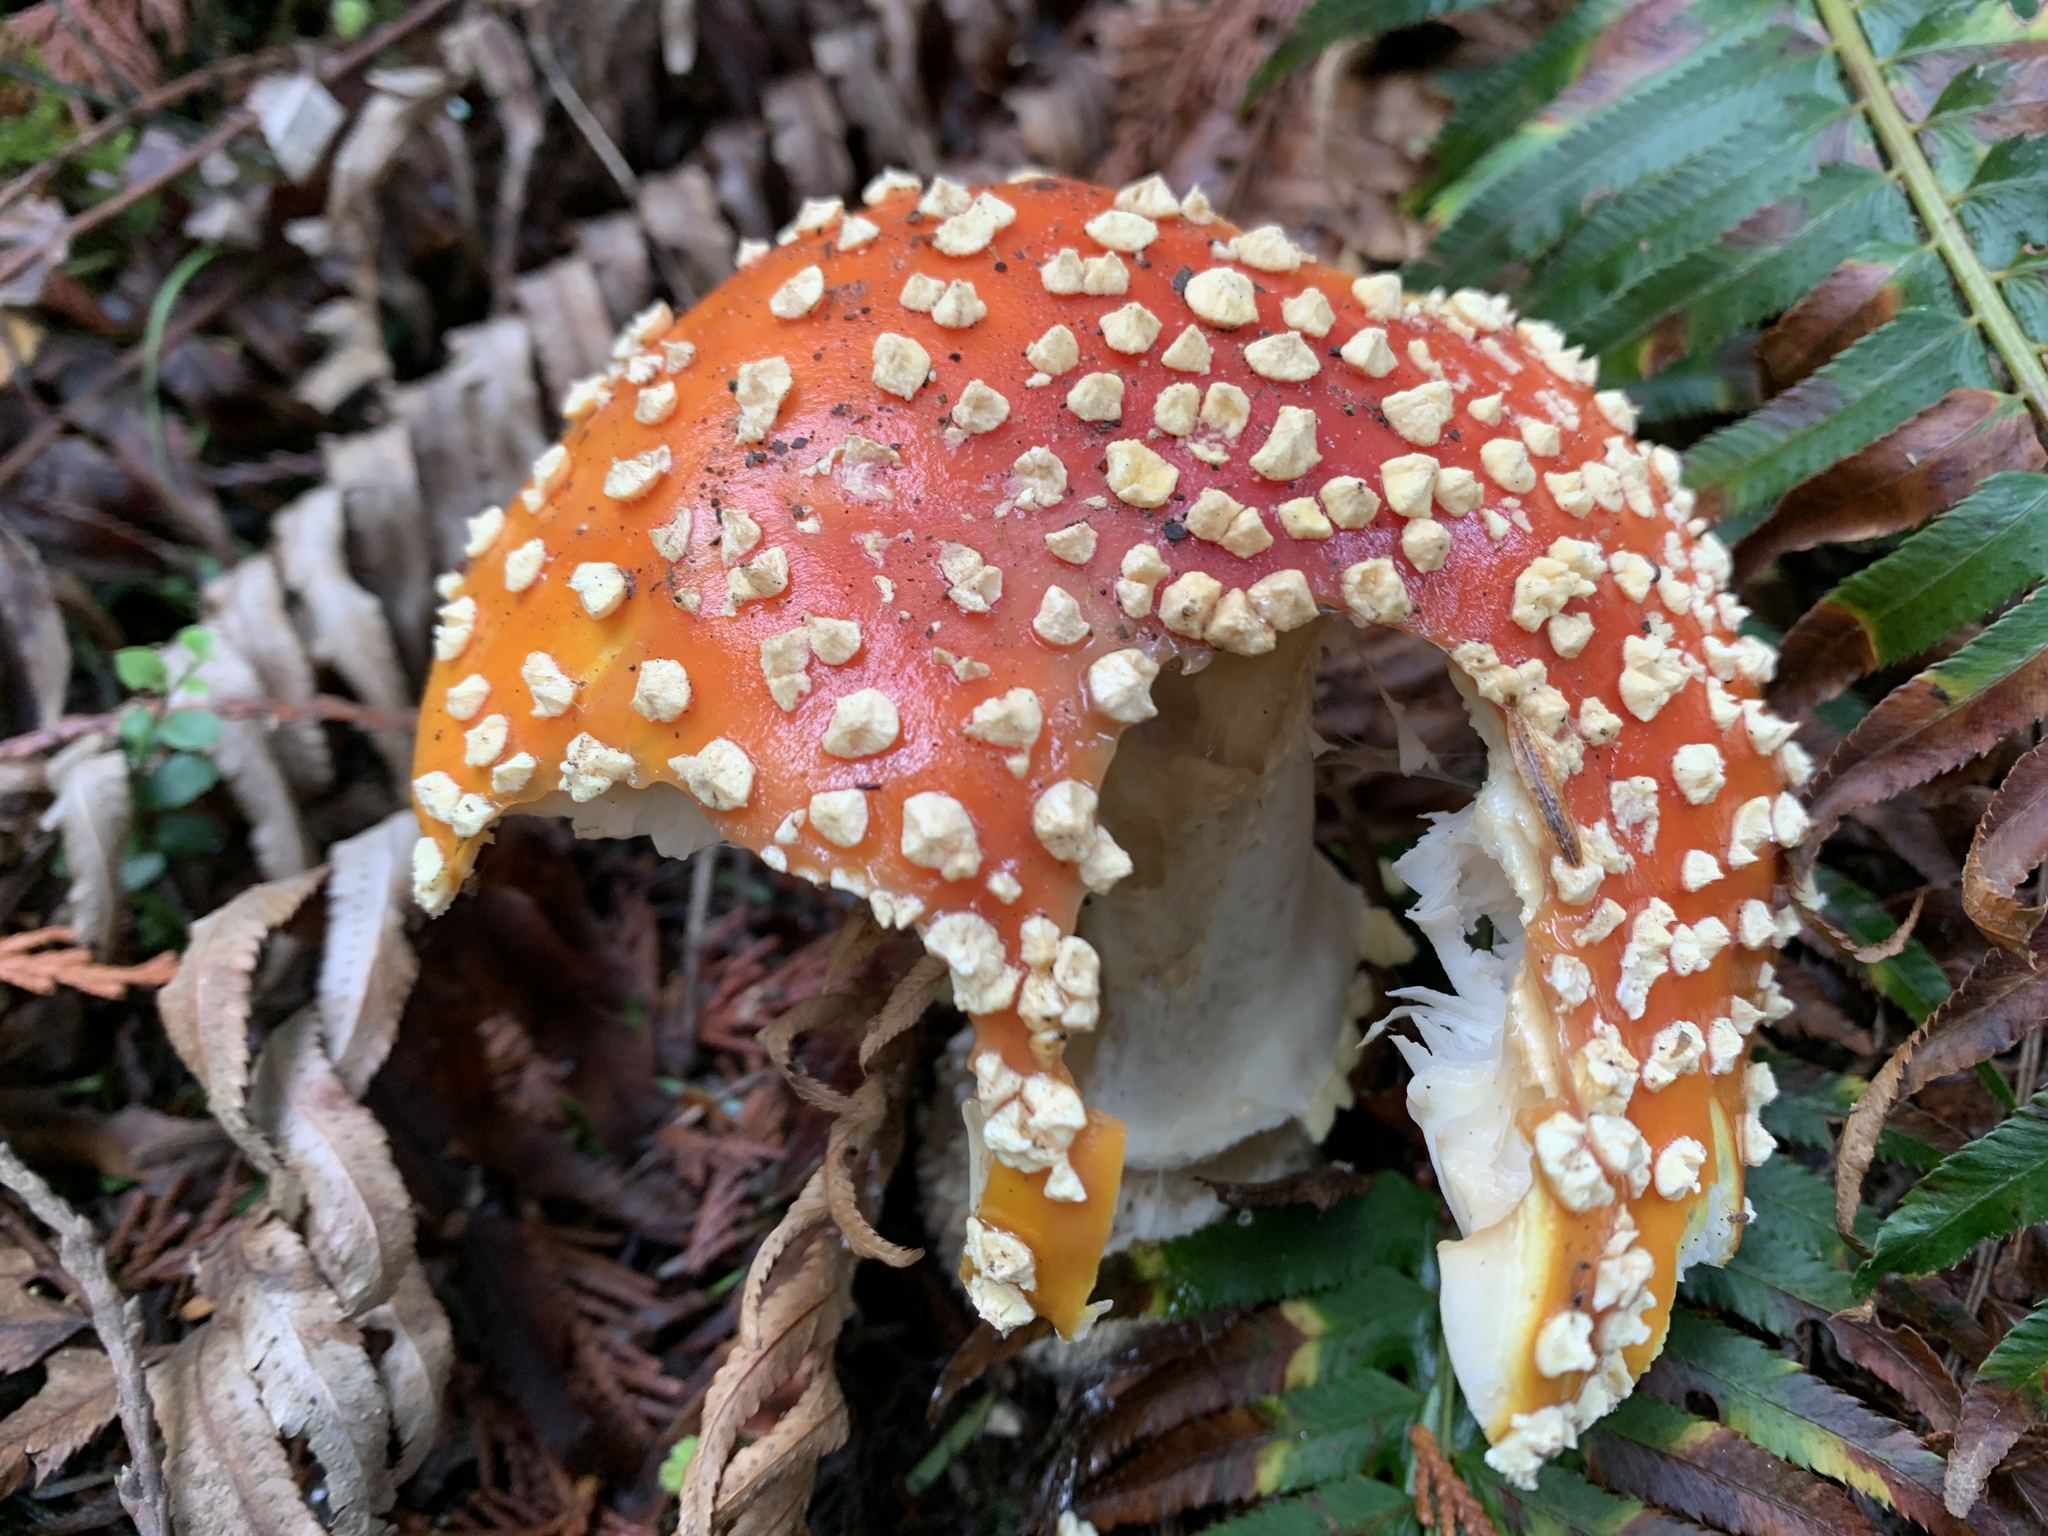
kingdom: Fungi
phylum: Basidiomycota
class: Agaricomycetes
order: Agaricales
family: Amanitaceae
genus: Amanita
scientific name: Amanita muscaria
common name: Fly agaric
